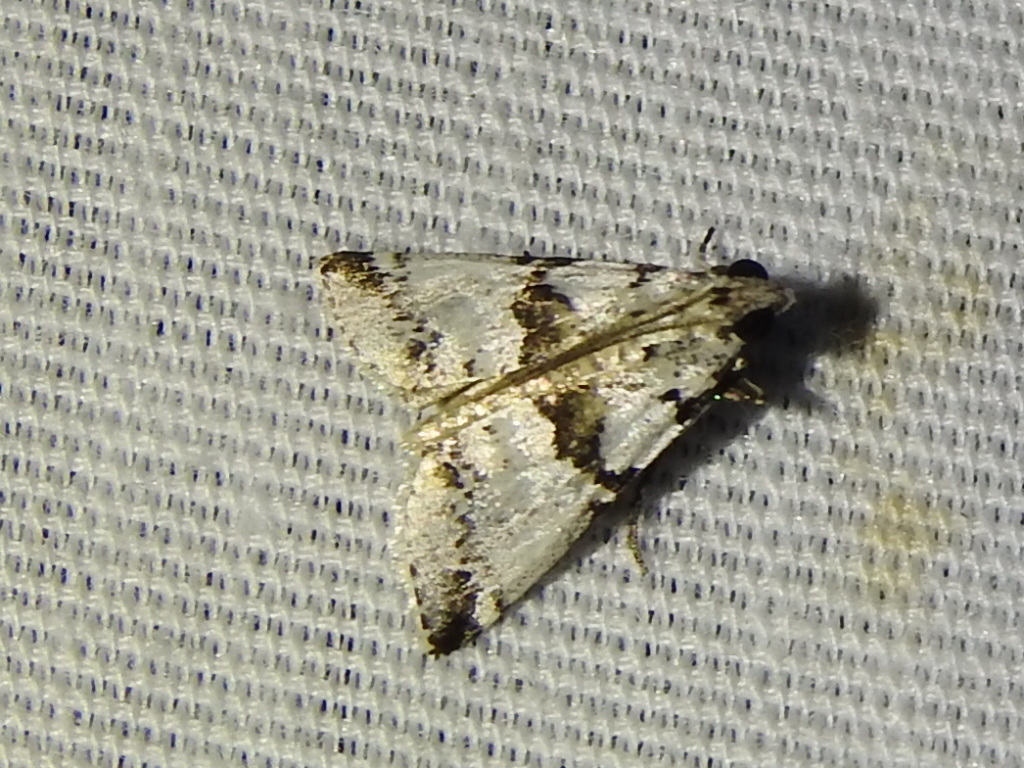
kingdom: Animalia
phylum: Arthropoda
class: Insecta
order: Lepidoptera
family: Pyralidae
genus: Tallula
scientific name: Tallula atrifascialis
